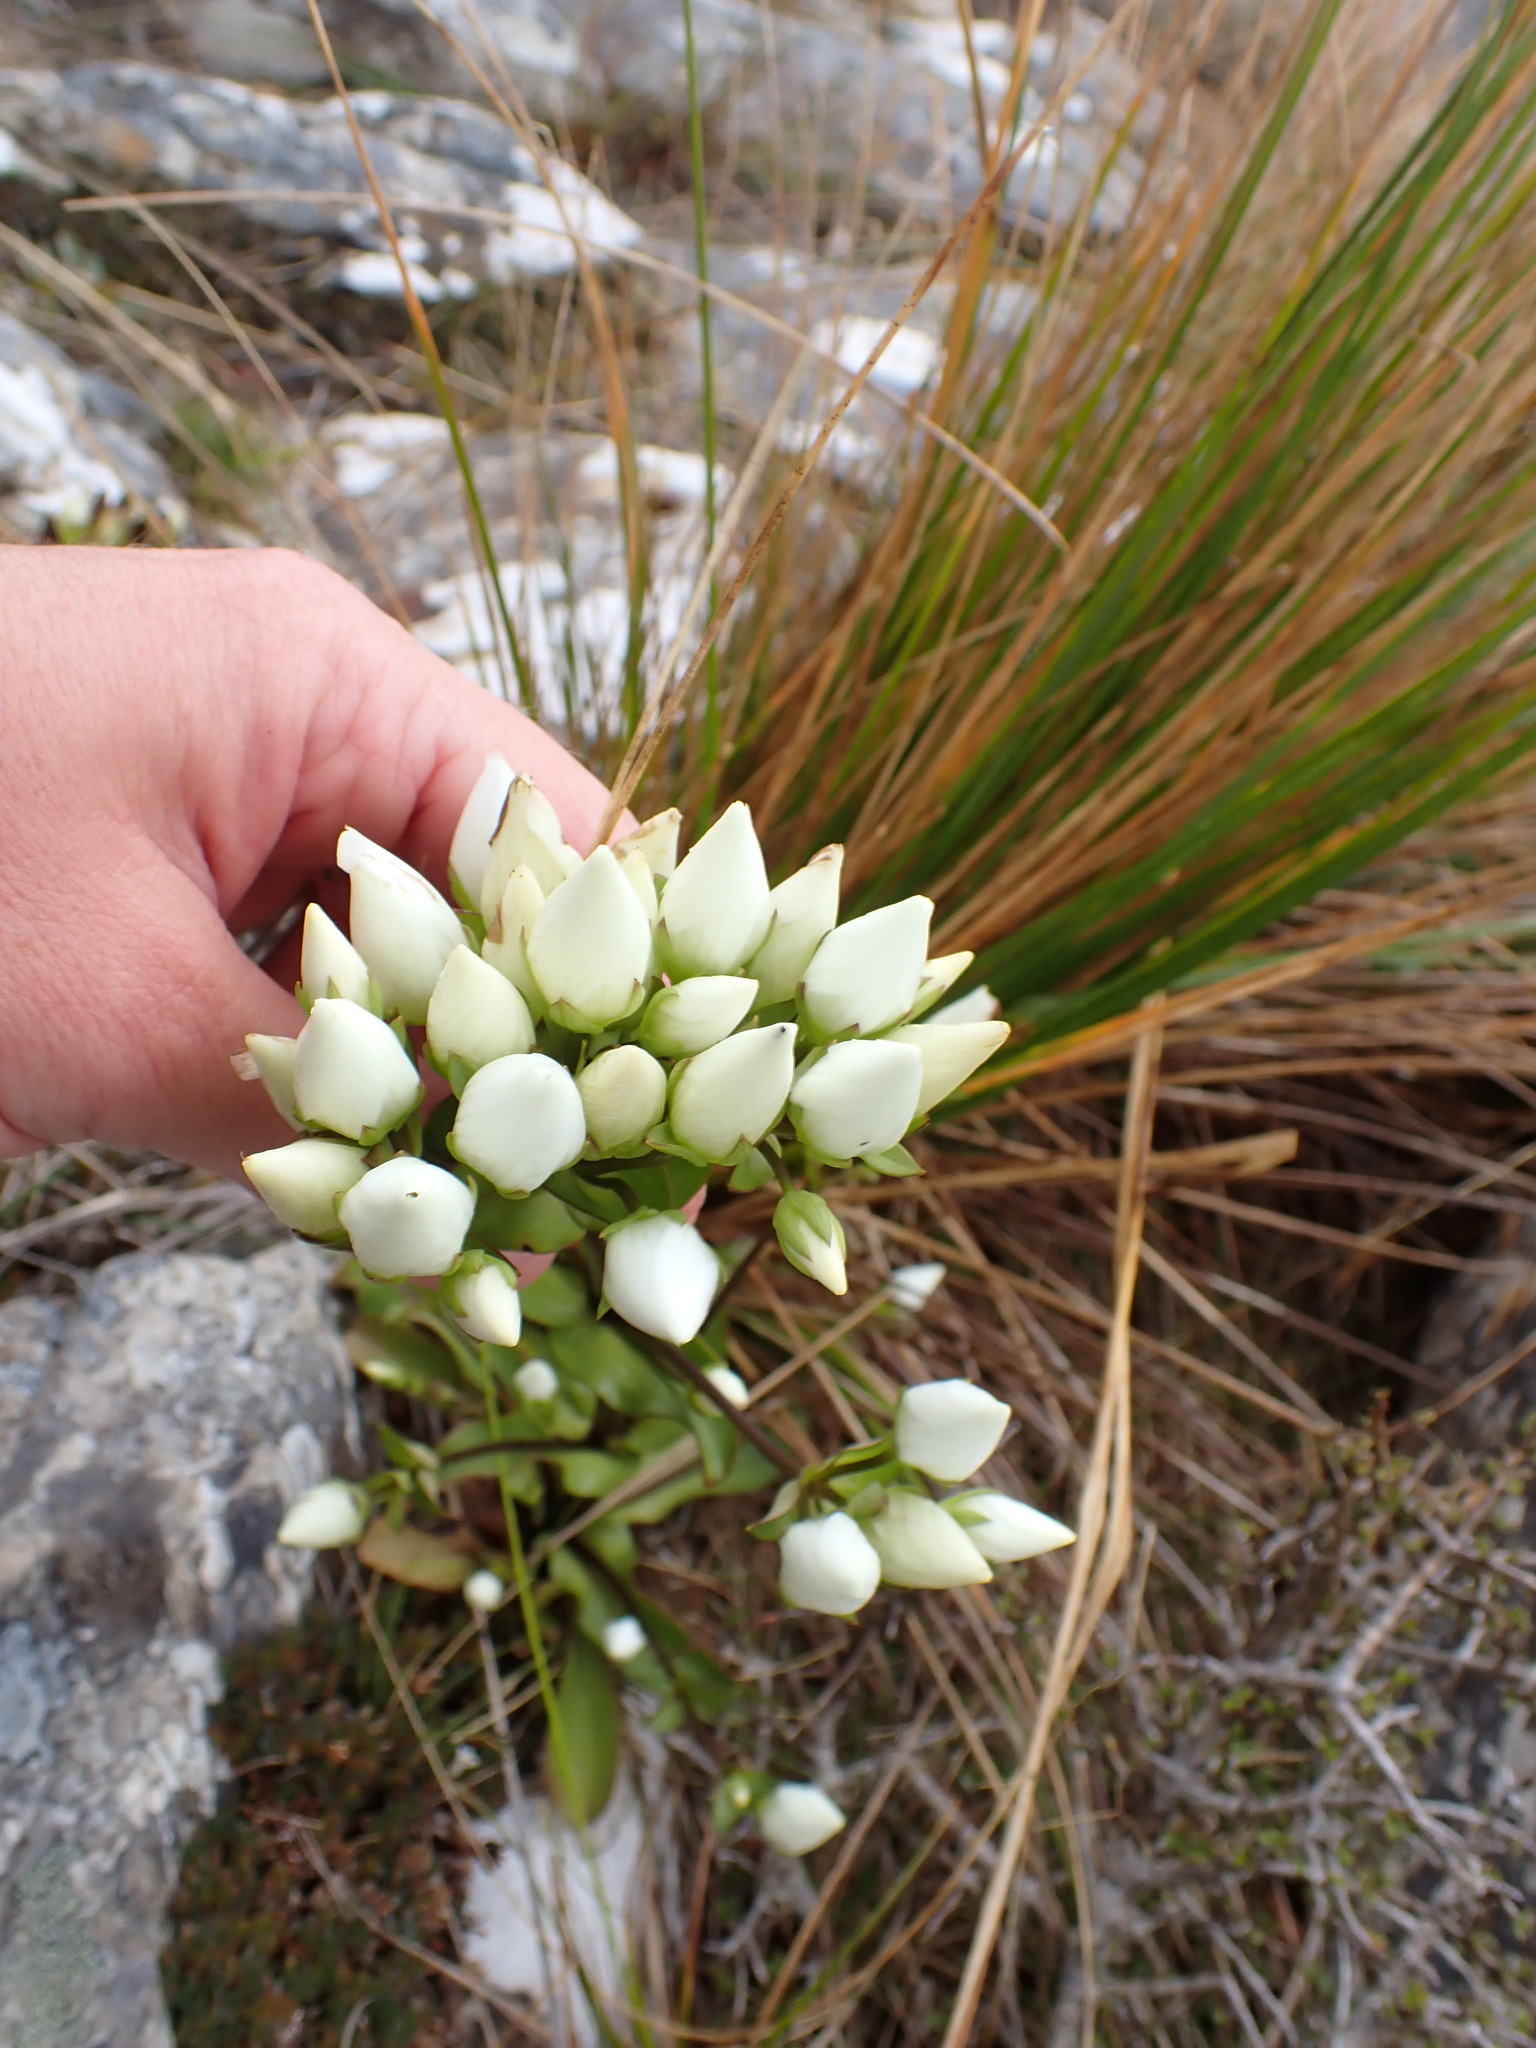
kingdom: Plantae
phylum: Tracheophyta
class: Magnoliopsida
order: Gentianales
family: Gentianaceae
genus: Gentianella
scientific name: Gentianella corymbifera
